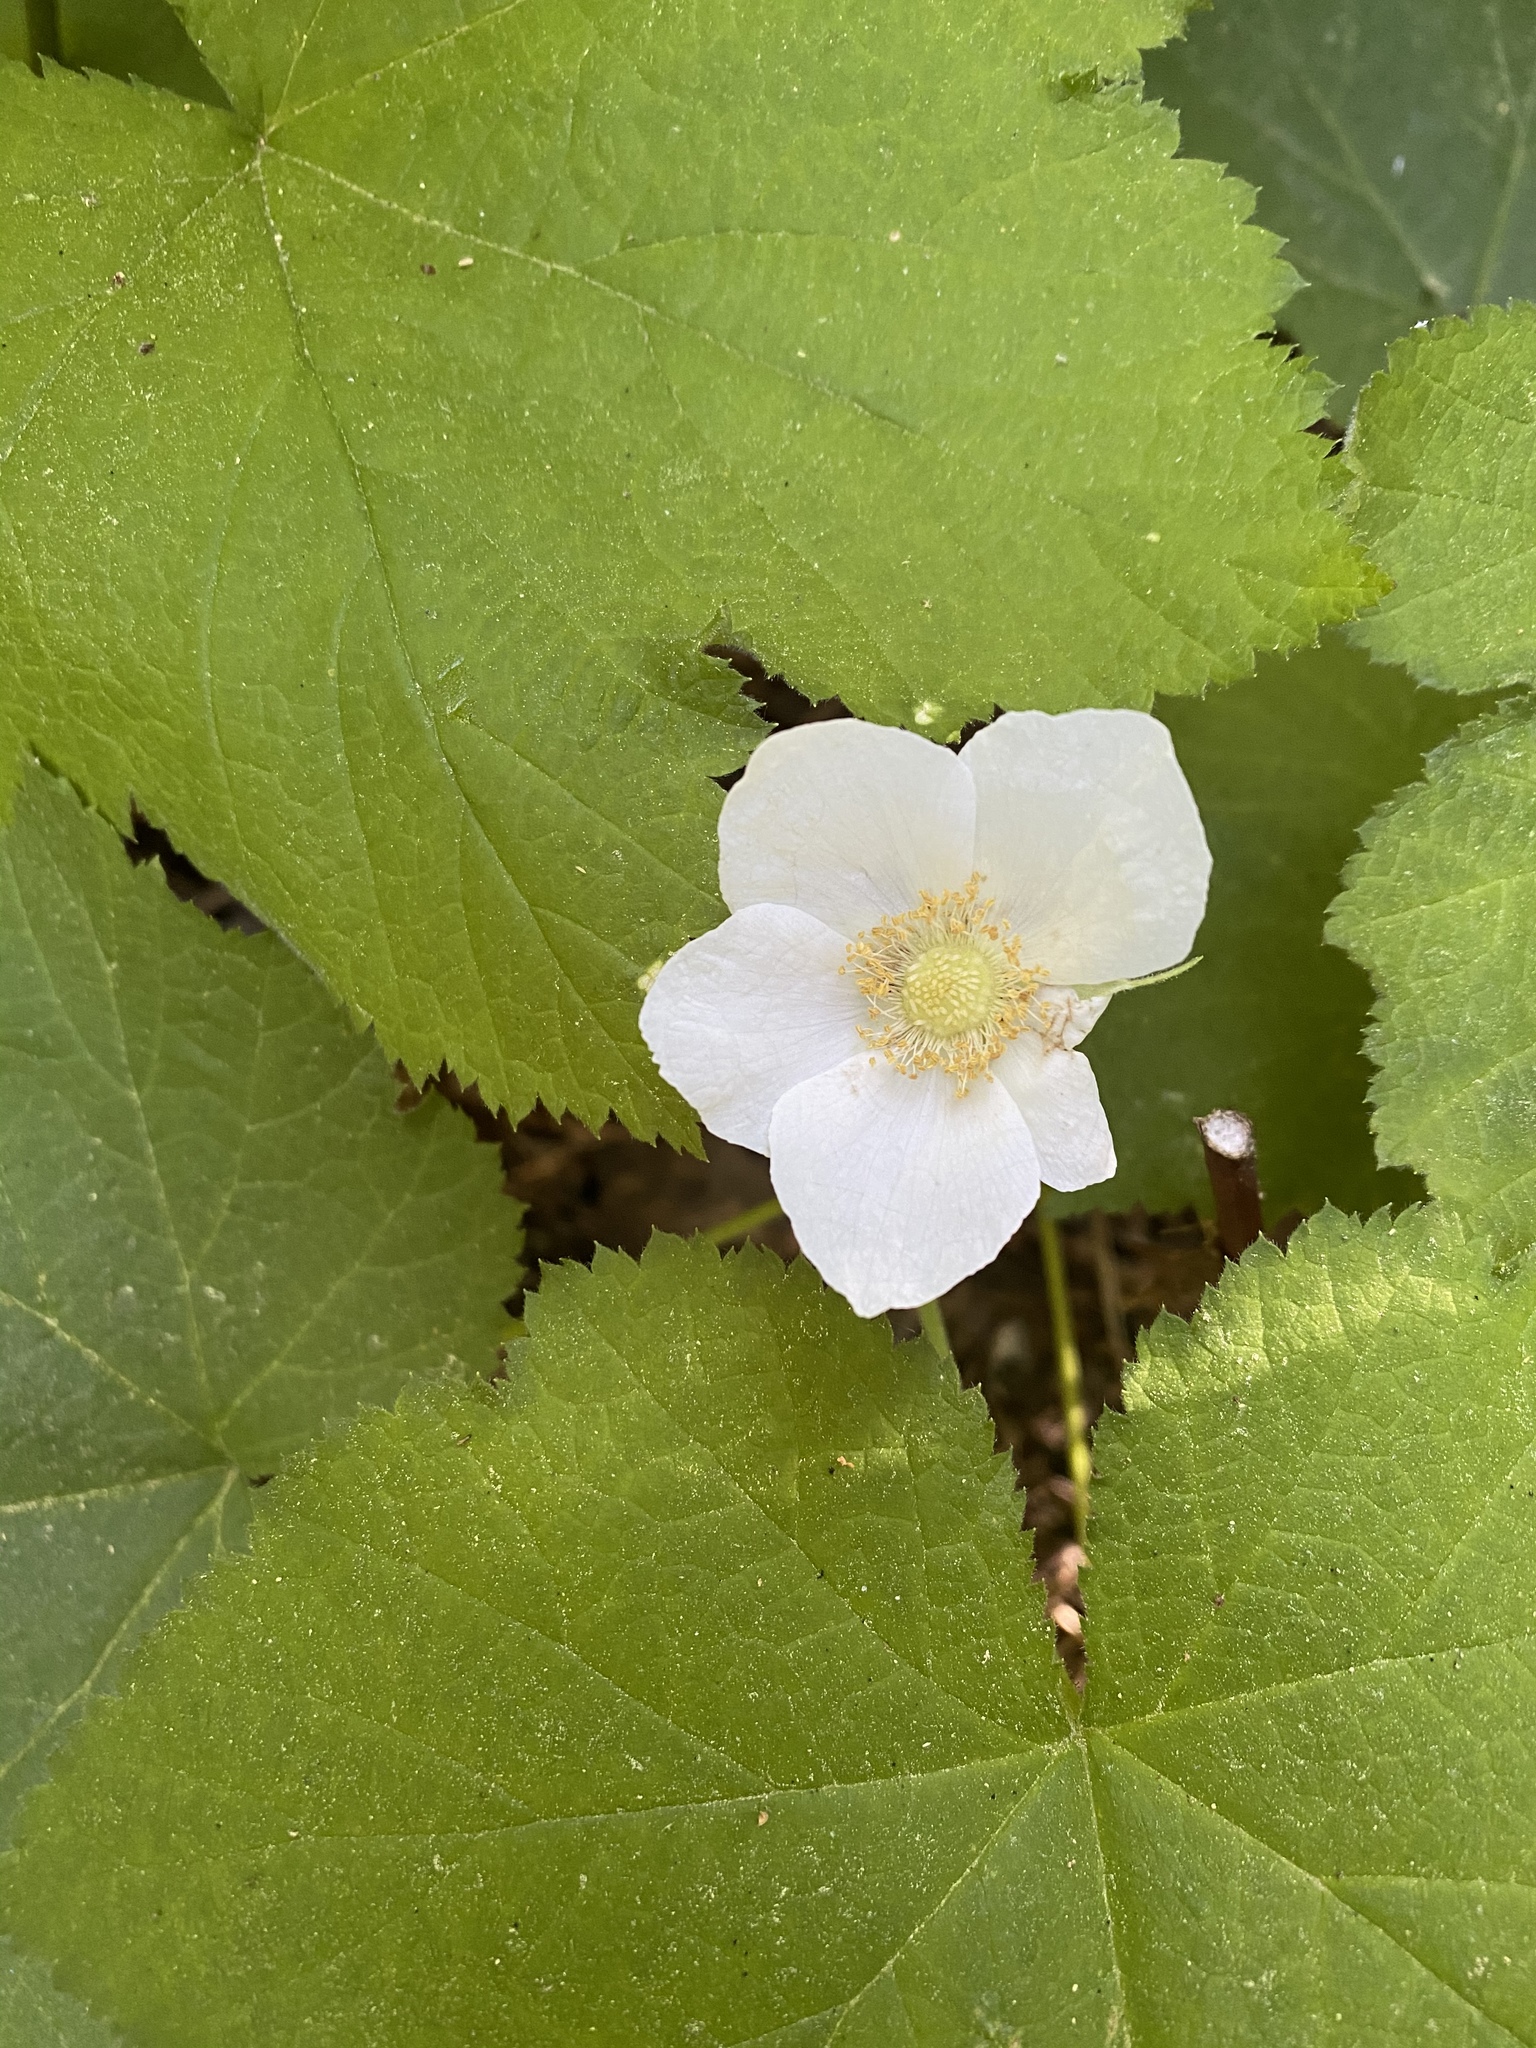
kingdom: Plantae
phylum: Tracheophyta
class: Magnoliopsida
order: Rosales
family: Rosaceae
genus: Rubus
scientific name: Rubus parviflorus
